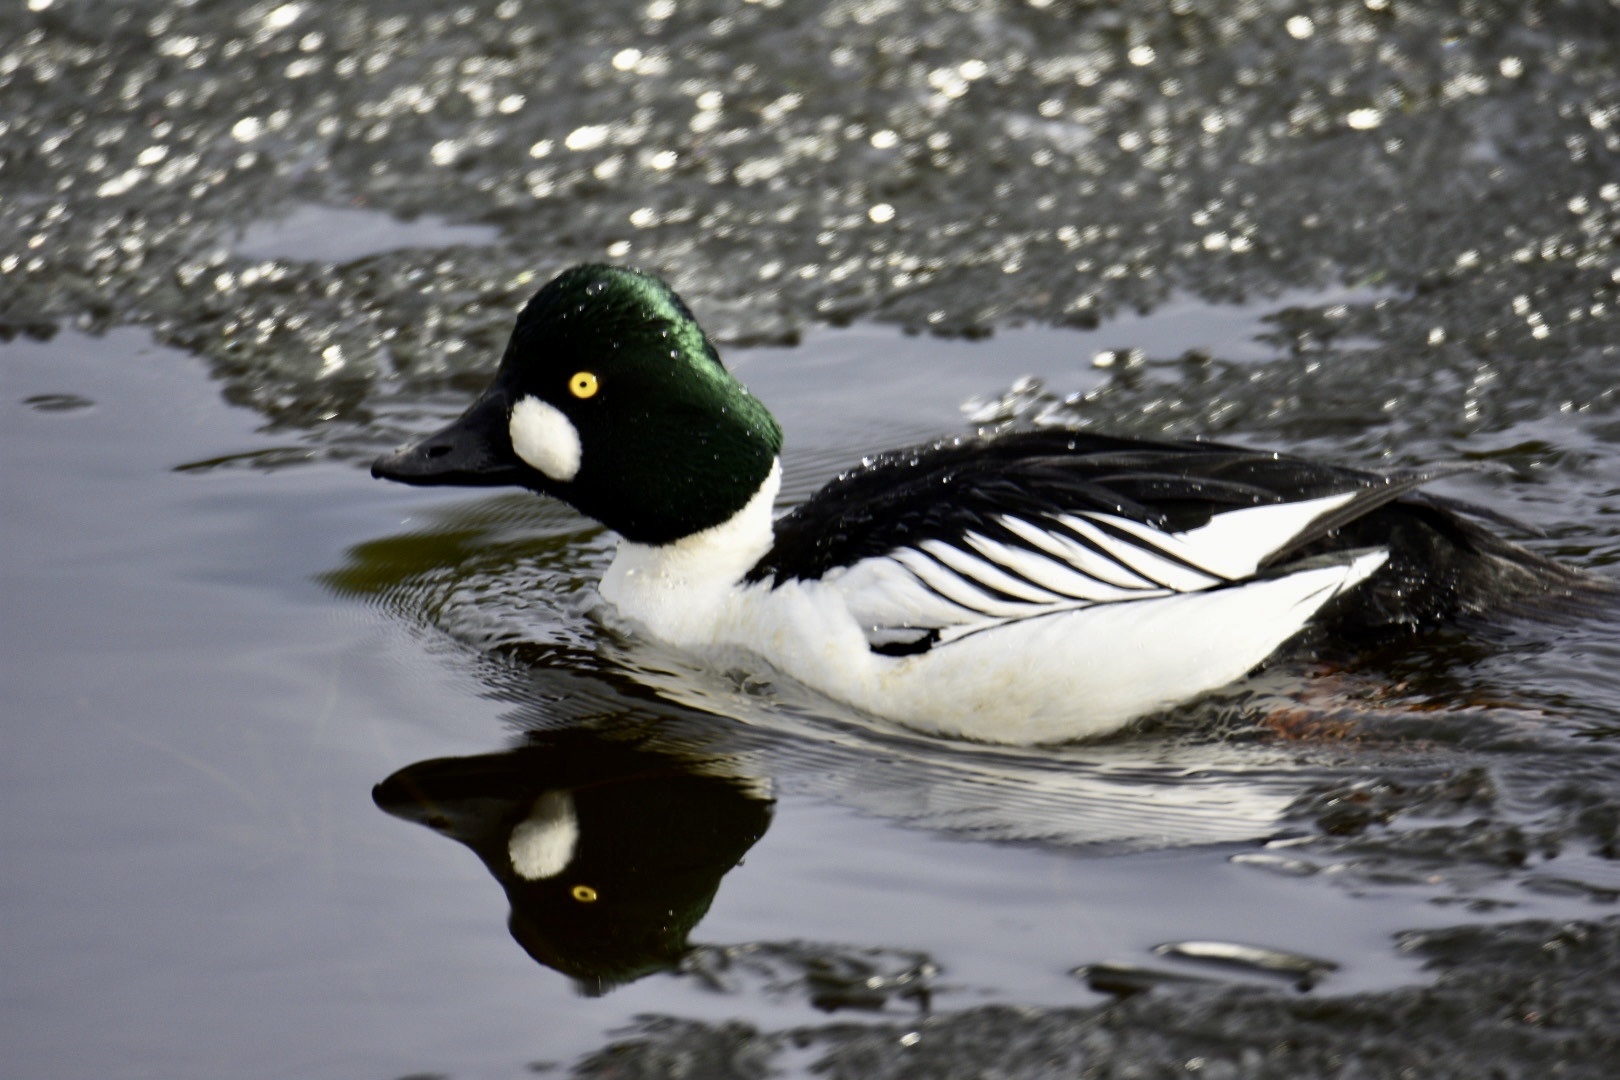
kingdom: Animalia
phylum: Chordata
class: Aves
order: Anseriformes
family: Anatidae
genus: Bucephala
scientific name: Bucephala clangula
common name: Common goldeneye
